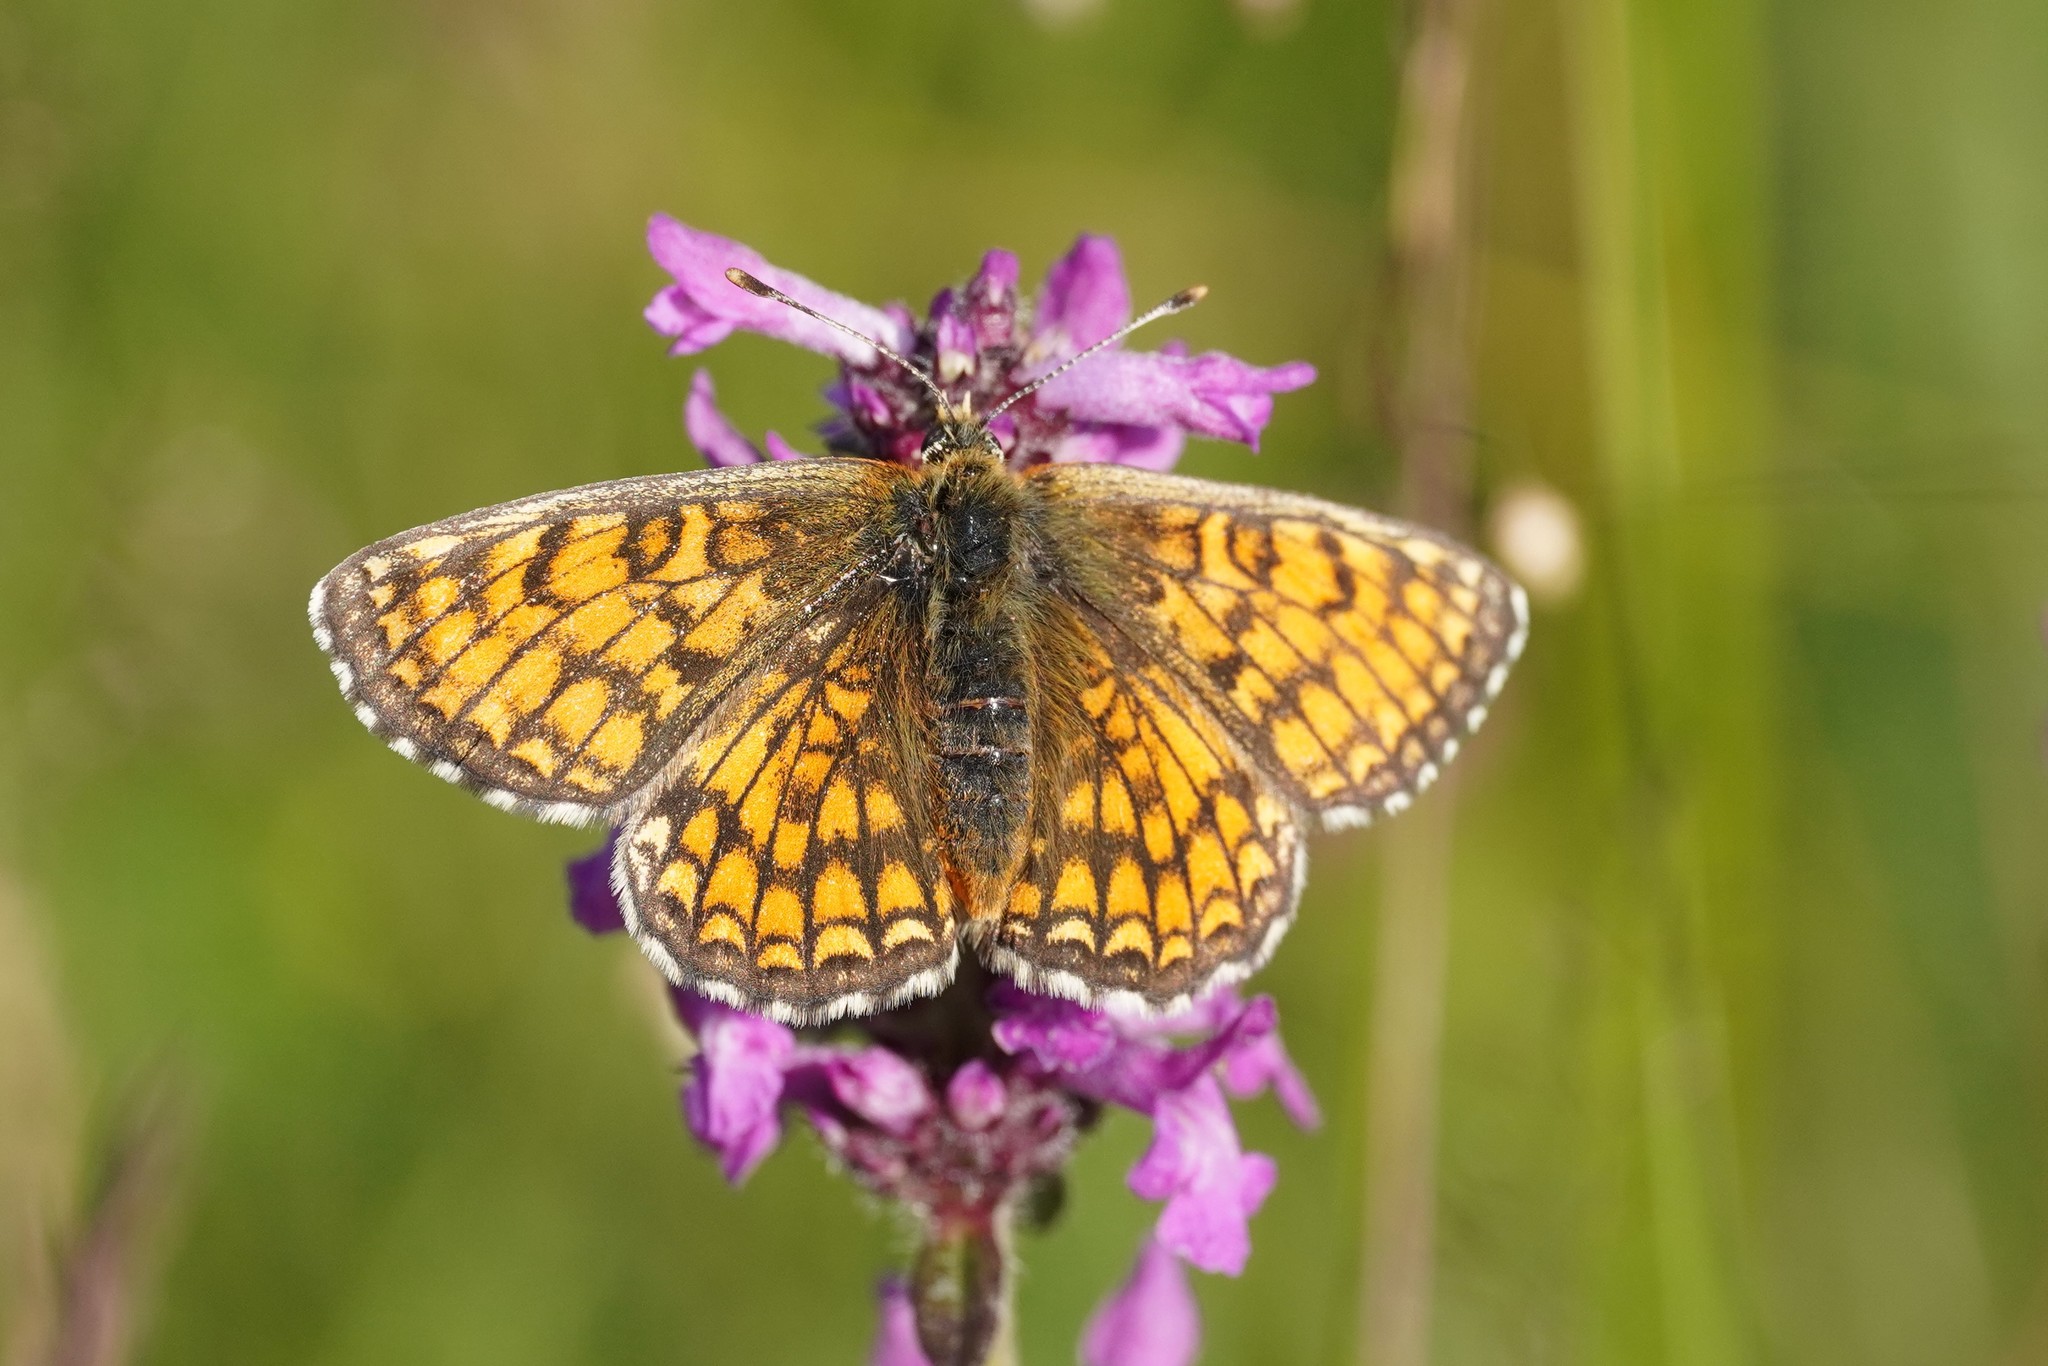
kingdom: Animalia
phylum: Arthropoda
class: Insecta
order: Lepidoptera
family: Nymphalidae
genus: Mellicta
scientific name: Mellicta parthenoides
